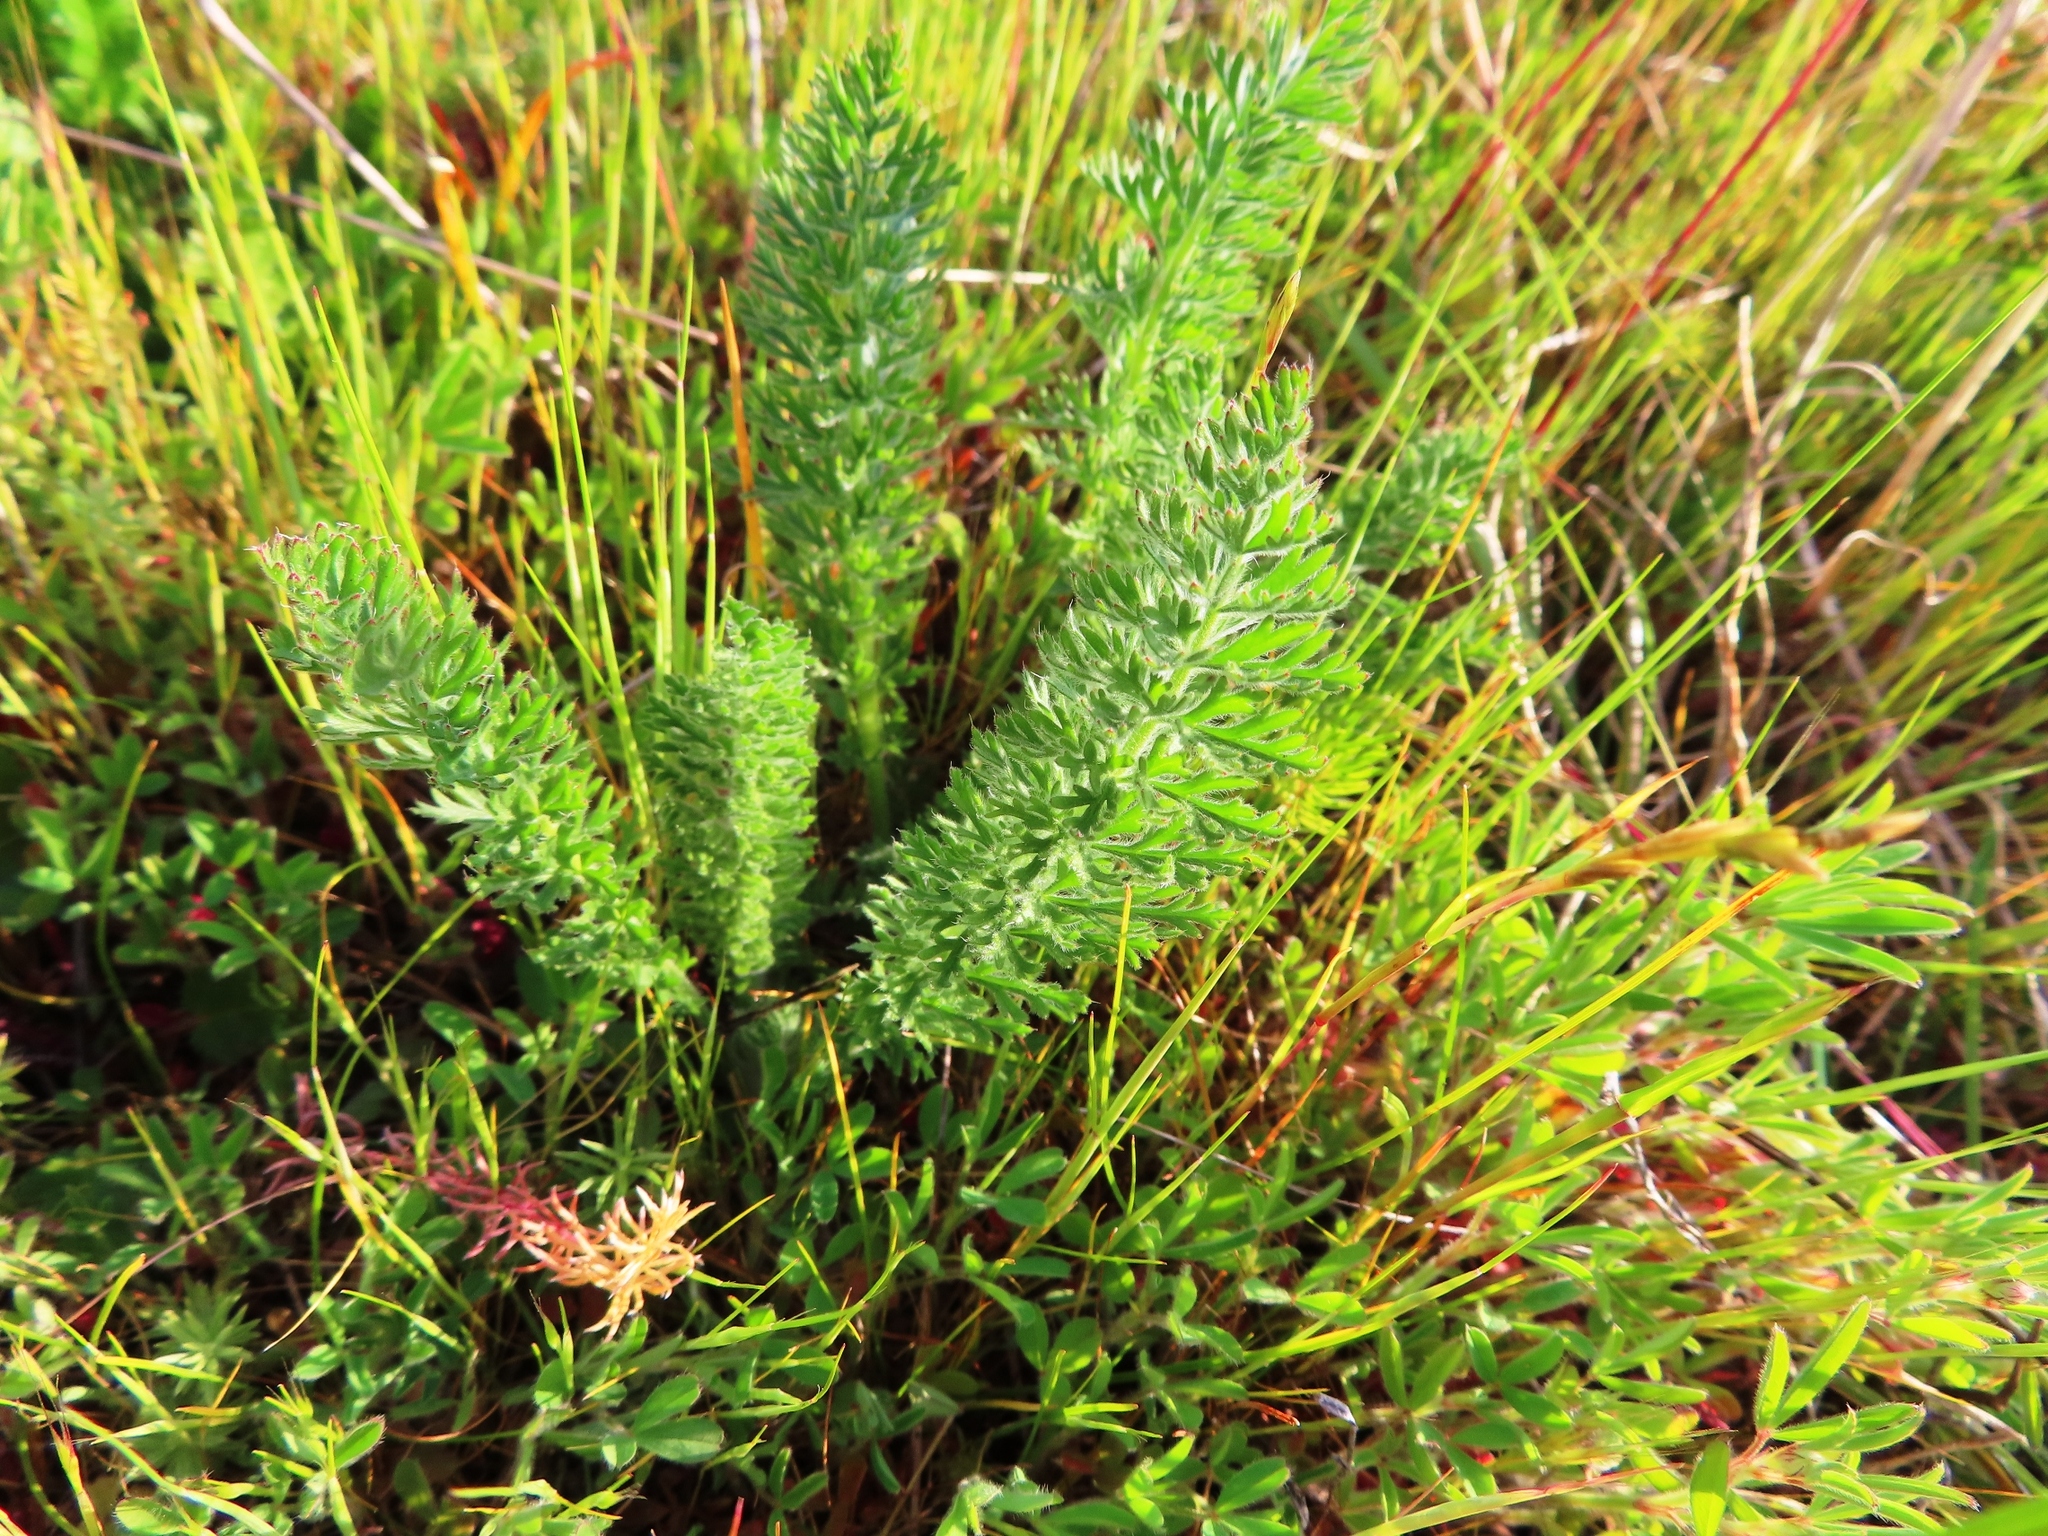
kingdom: Plantae
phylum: Tracheophyta
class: Magnoliopsida
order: Geraniales
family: Geraniaceae
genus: Pelargonium
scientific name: Pelargonium rapaceum
